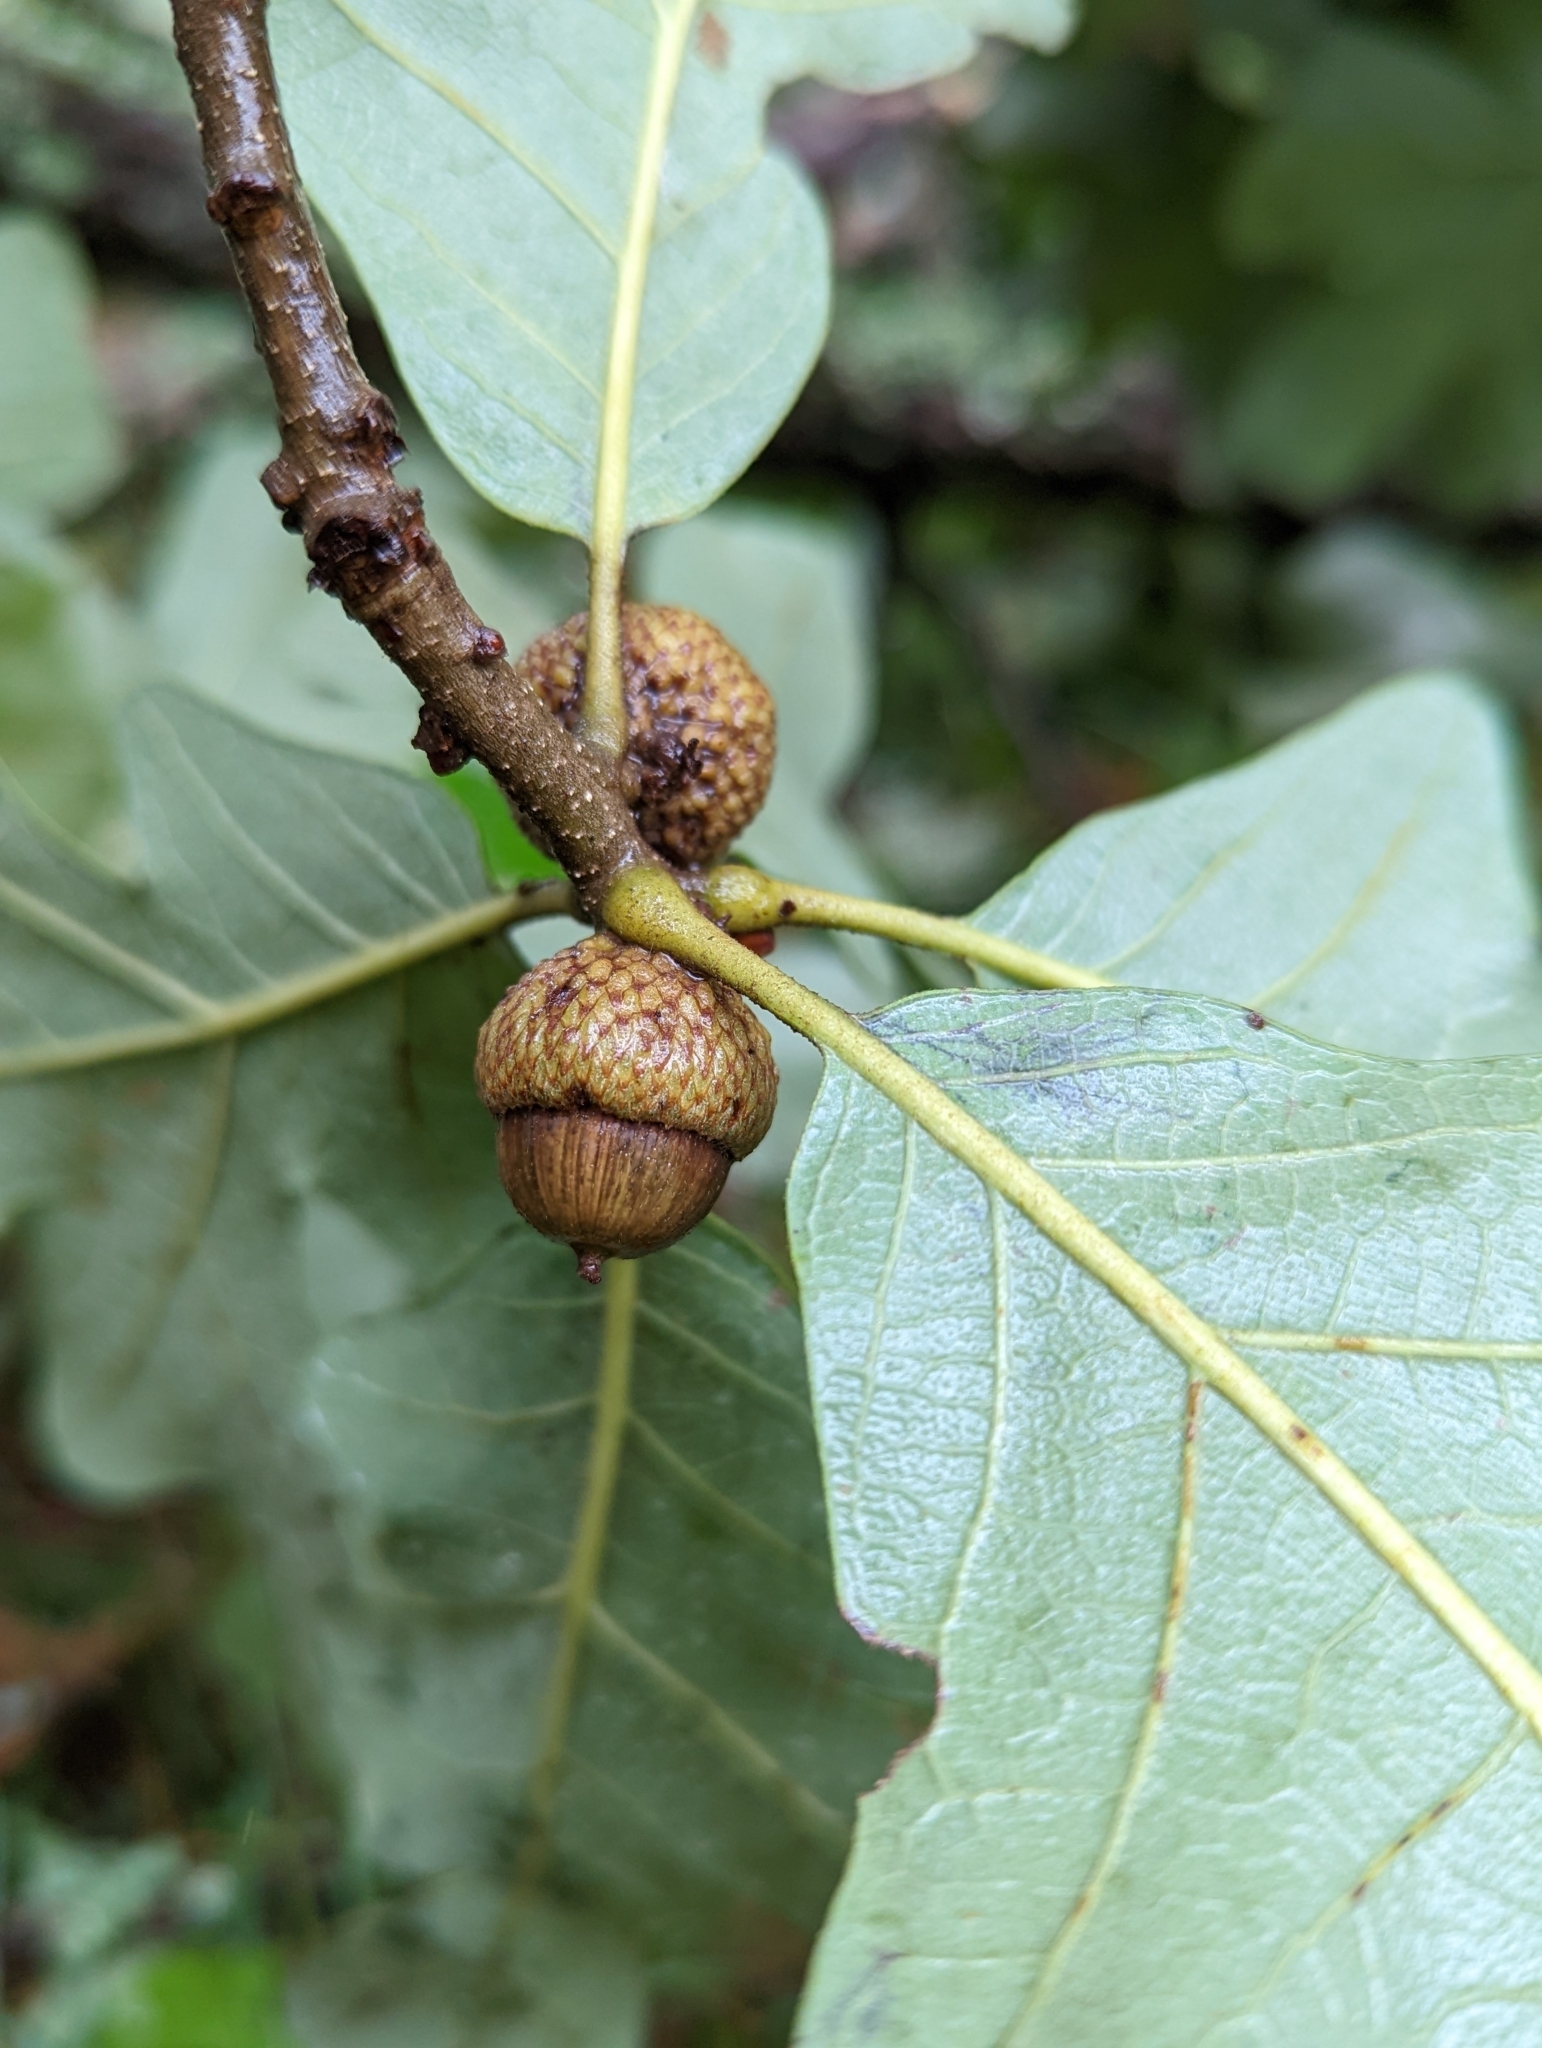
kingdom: Plantae
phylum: Tracheophyta
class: Magnoliopsida
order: Fagales
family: Fagaceae
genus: Quercus
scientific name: Quercus stellata
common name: Post oak
